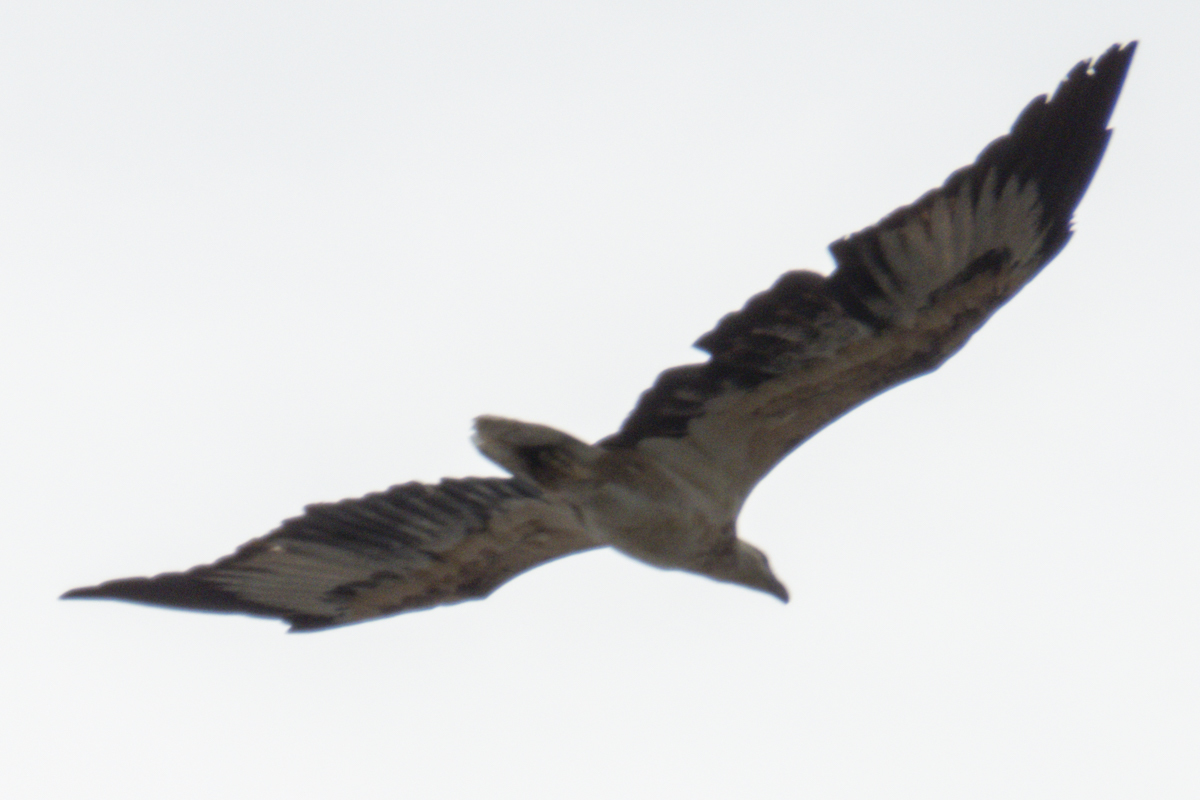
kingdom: Animalia
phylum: Chordata
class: Aves
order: Accipitriformes
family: Accipitridae
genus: Haliaeetus
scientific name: Haliaeetus leucogaster
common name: White-bellied sea eagle
